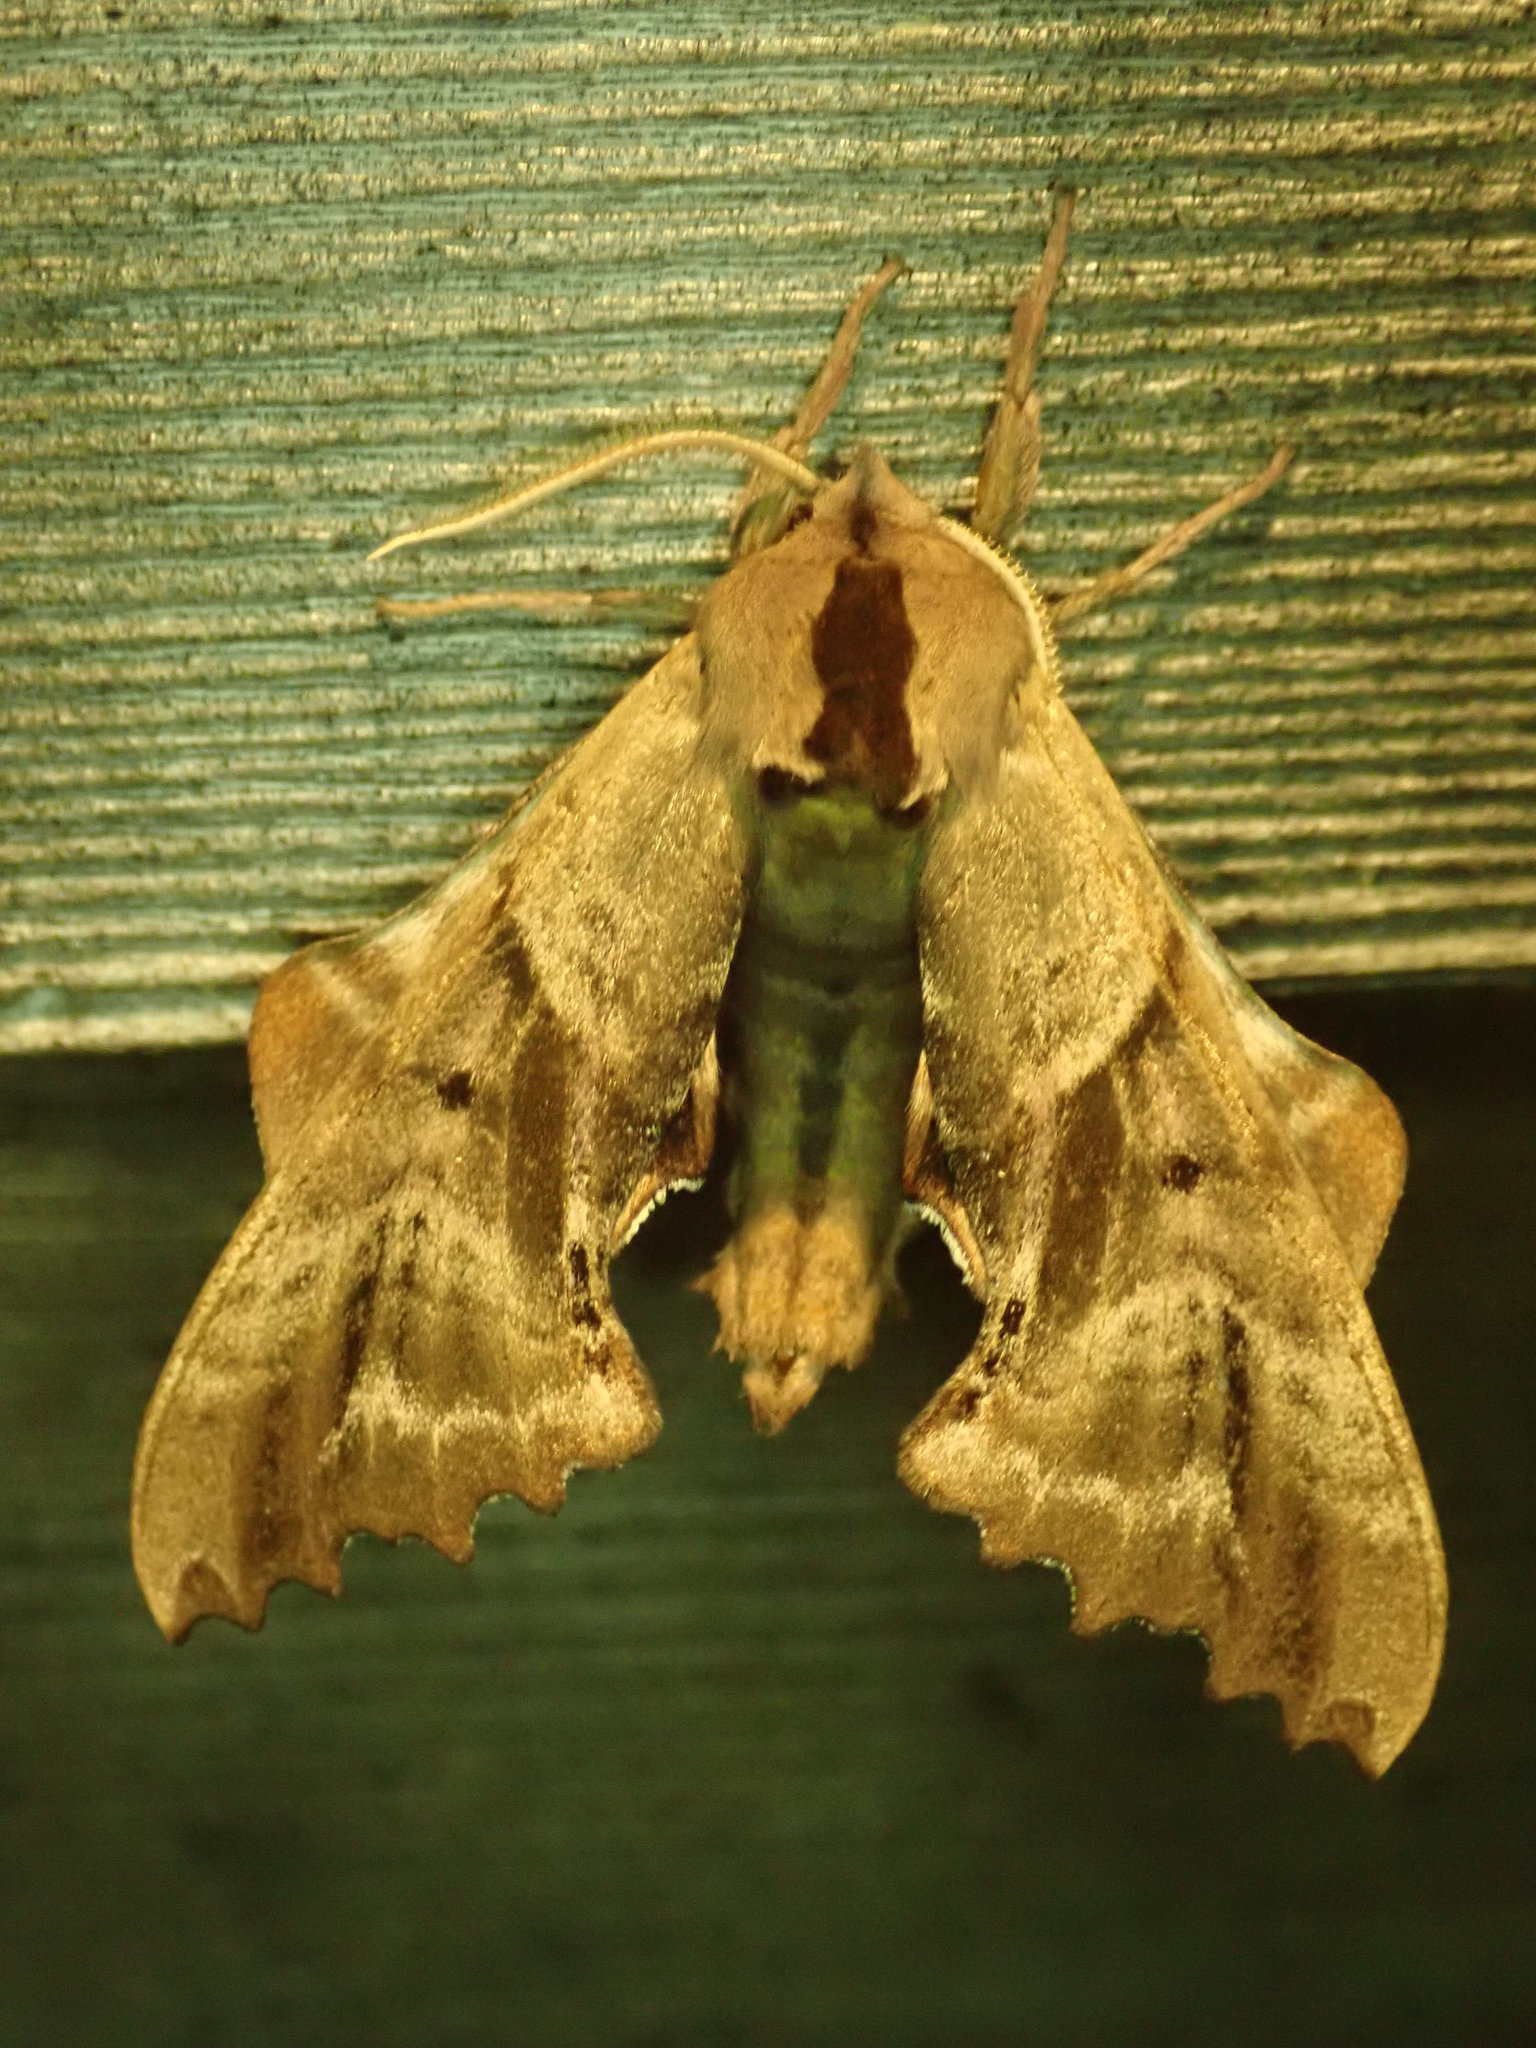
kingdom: Animalia
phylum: Arthropoda
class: Insecta
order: Lepidoptera
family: Sphingidae
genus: Paonias
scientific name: Paonias excaecata
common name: Blind-eyed sphinx
